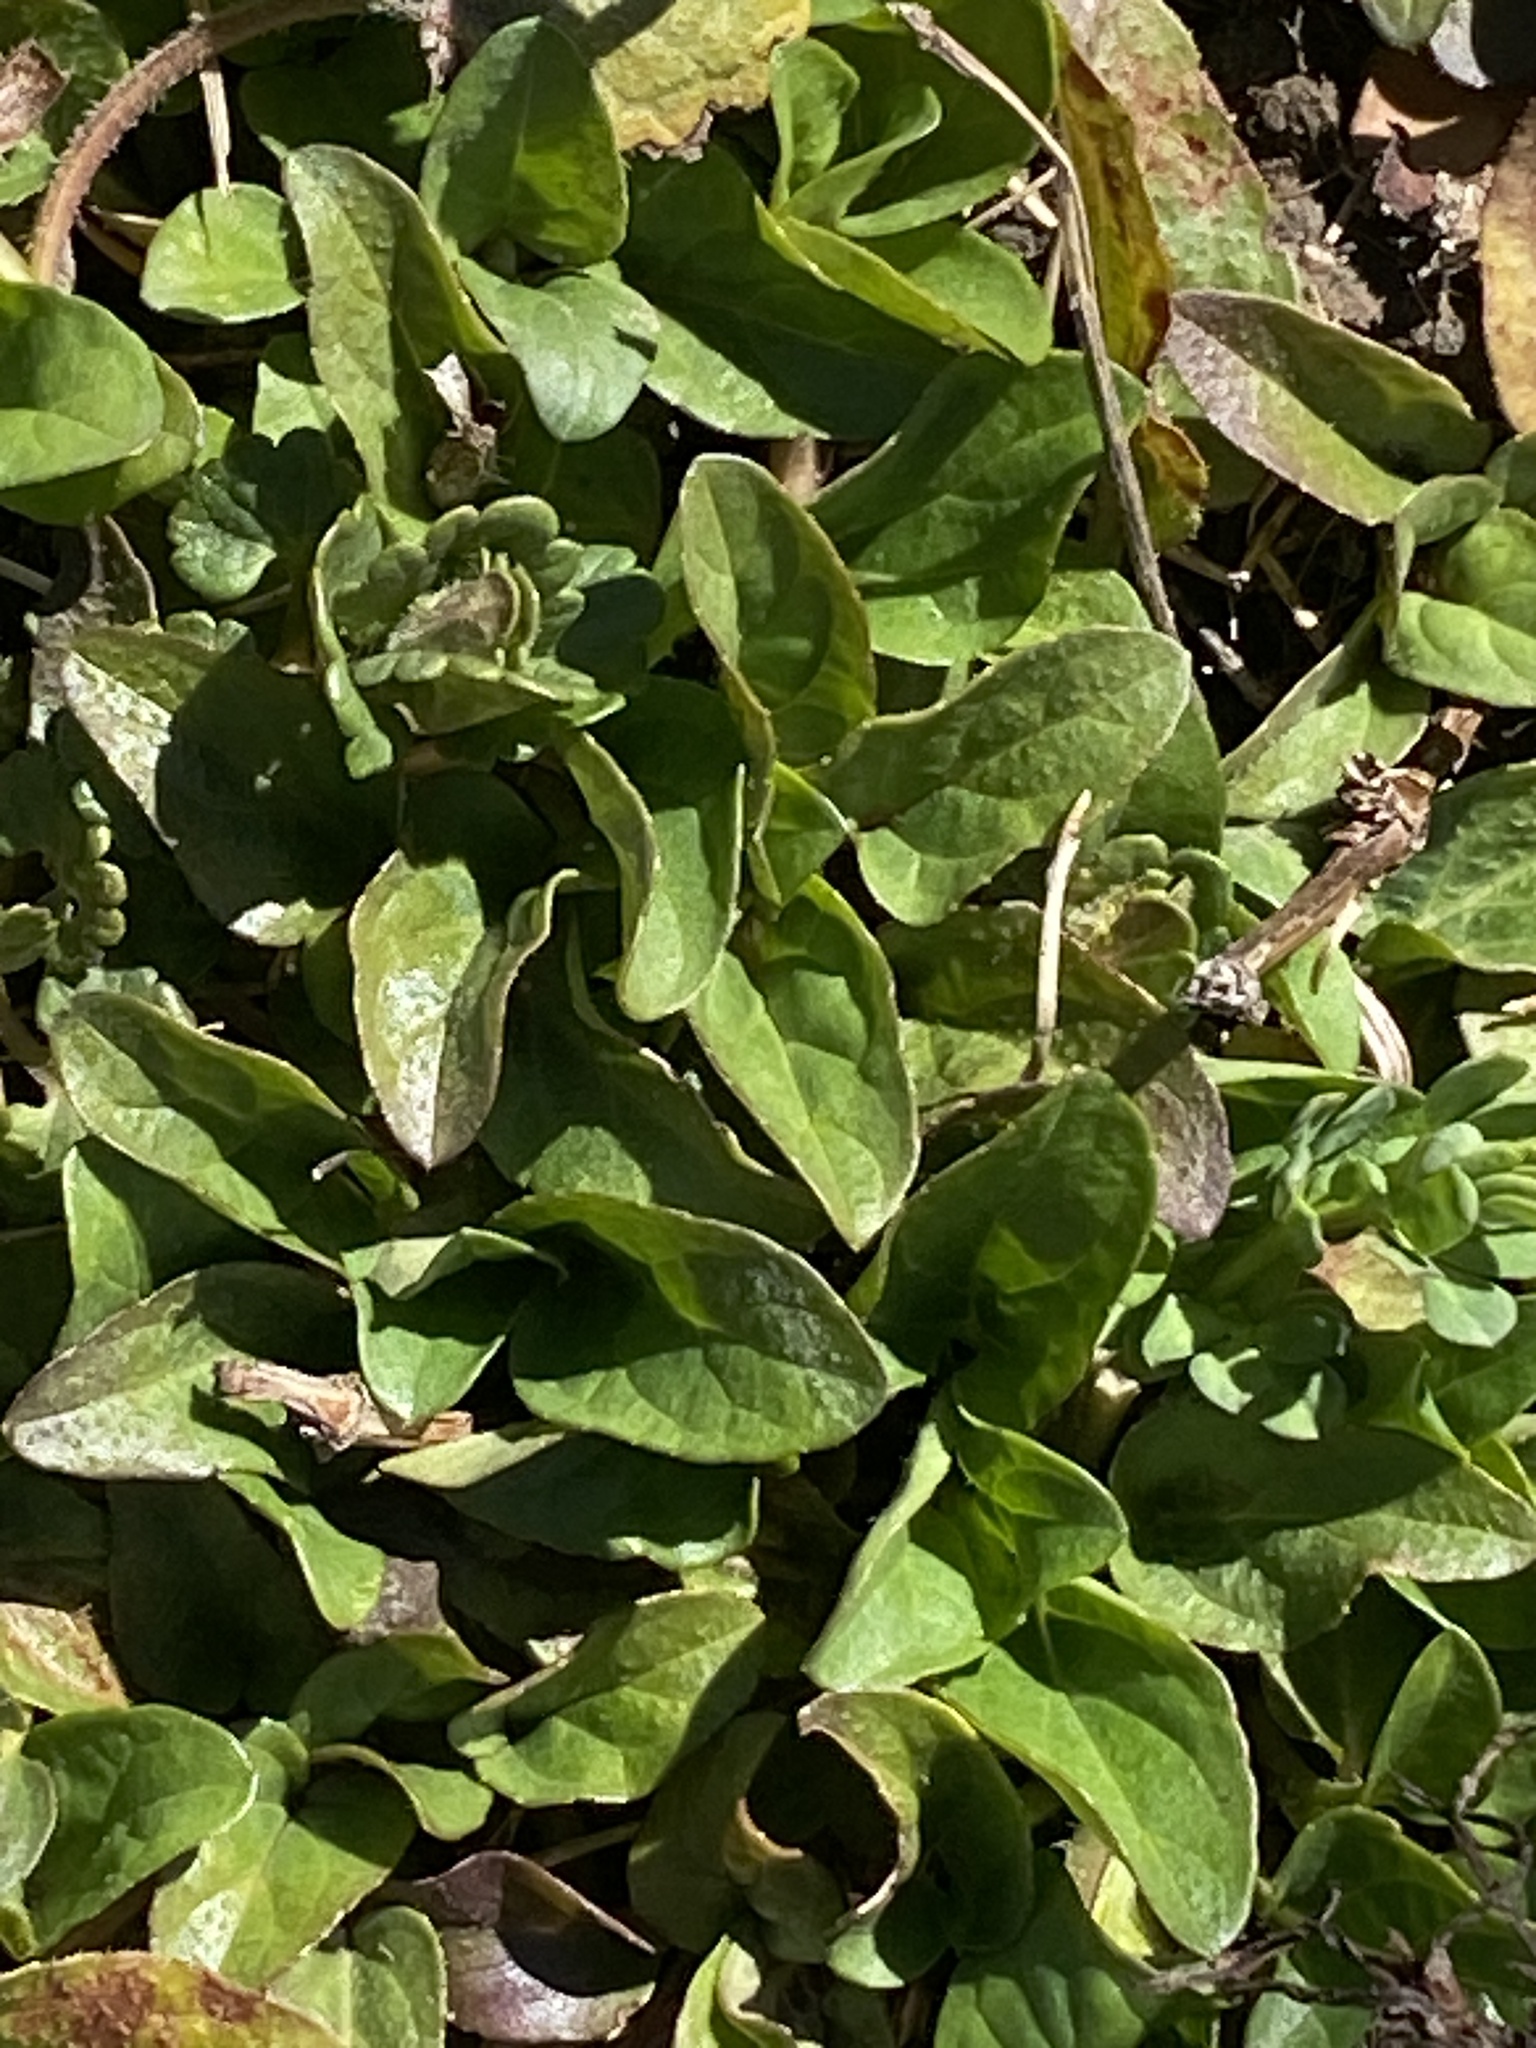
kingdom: Plantae
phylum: Tracheophyta
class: Magnoliopsida
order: Lamiales
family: Lamiaceae
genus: Prunella
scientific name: Prunella vulgaris
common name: Heal-all
